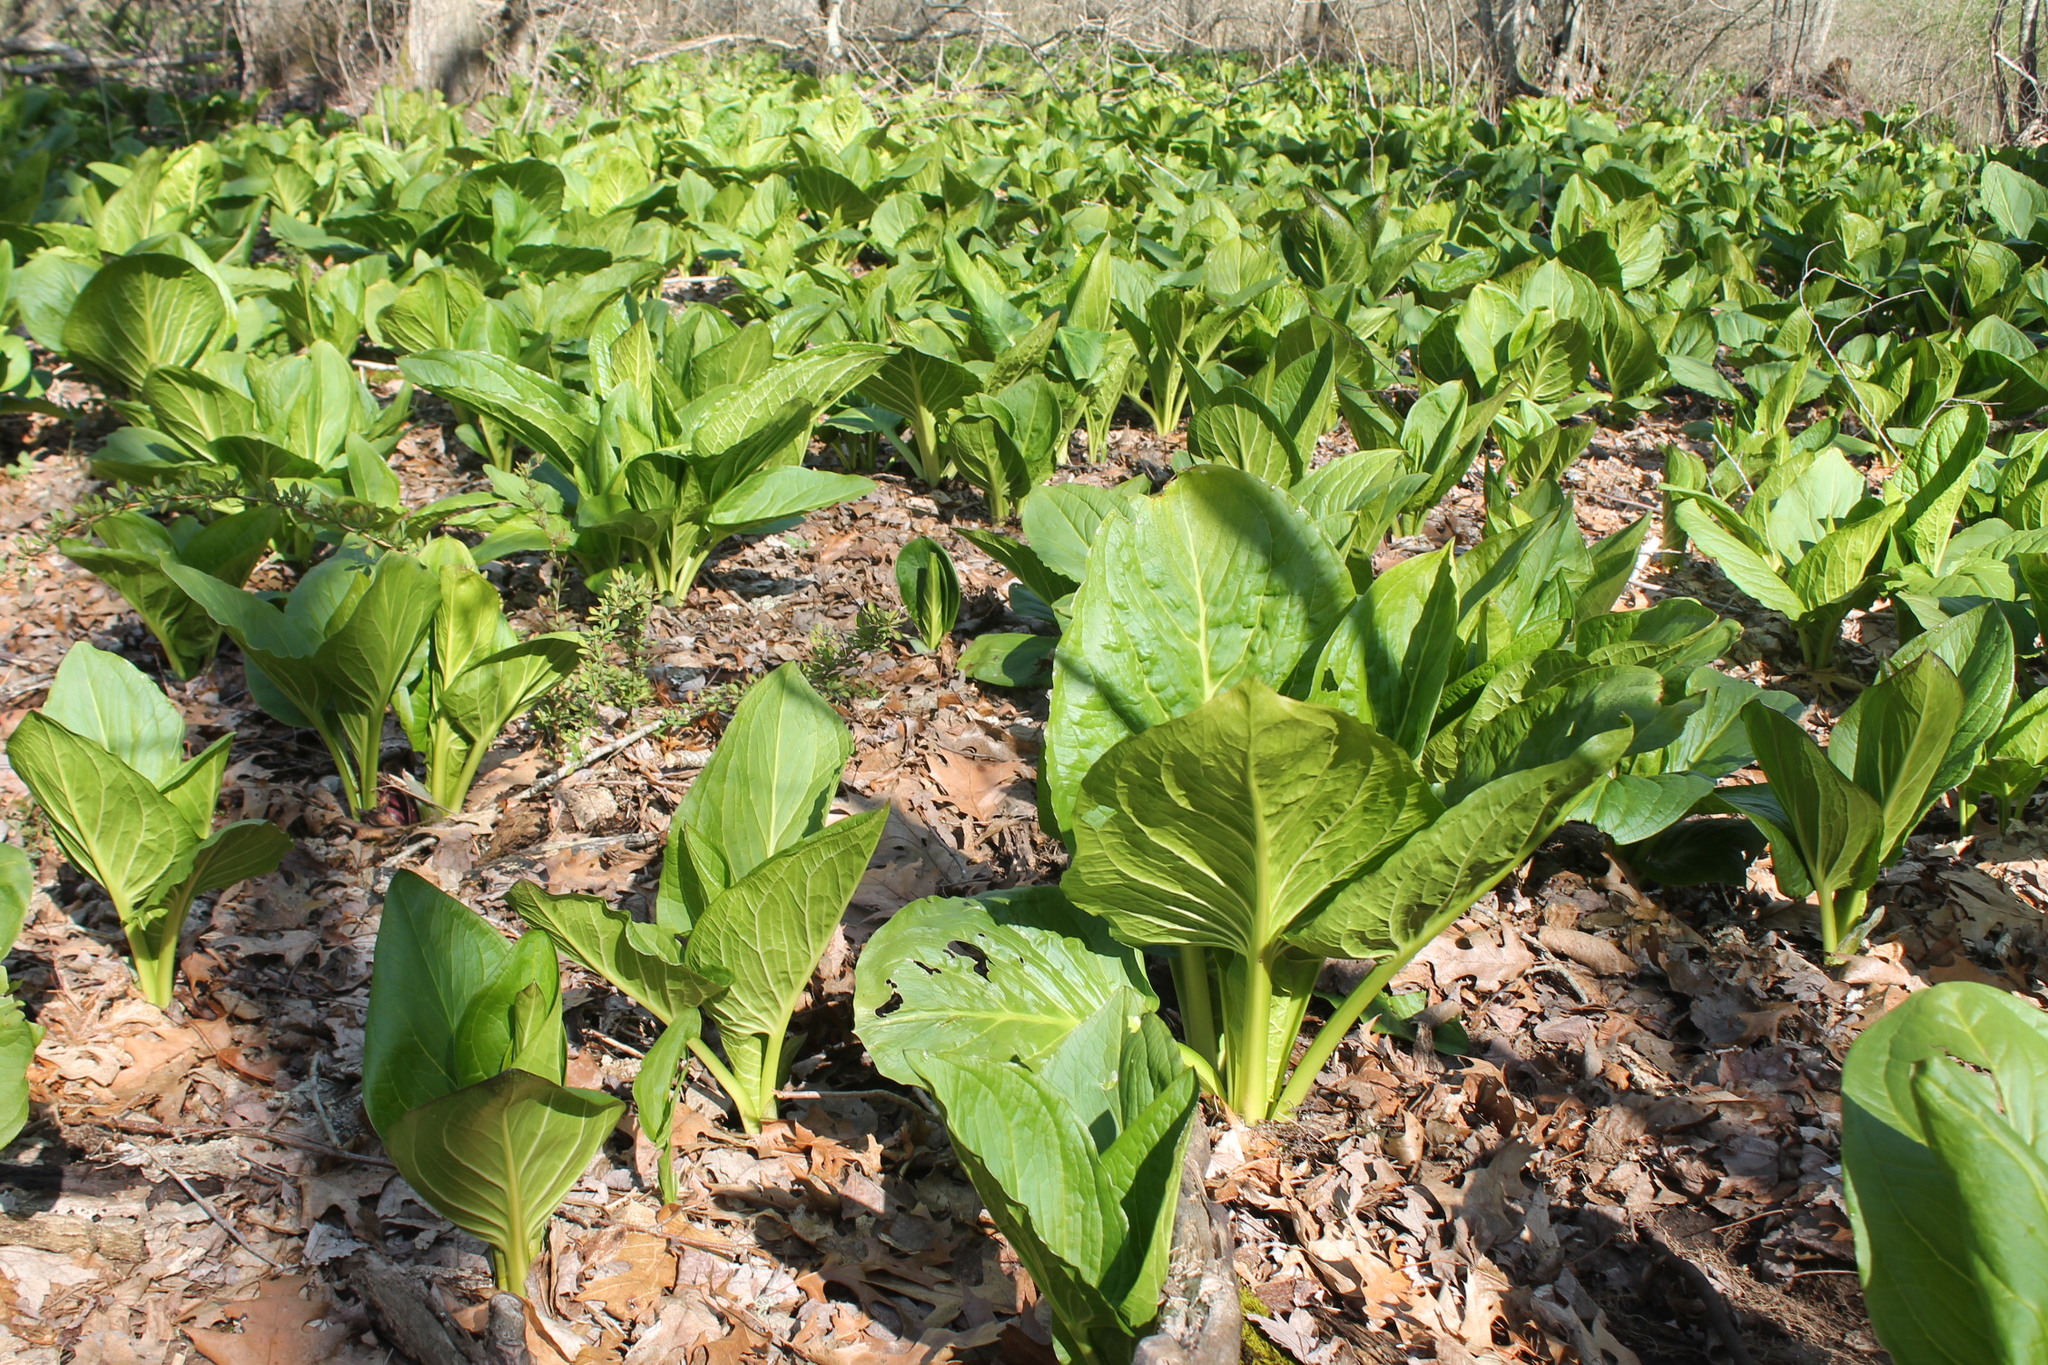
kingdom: Plantae
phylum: Tracheophyta
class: Liliopsida
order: Alismatales
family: Araceae
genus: Symplocarpus
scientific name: Symplocarpus foetidus
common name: Eastern skunk cabbage
